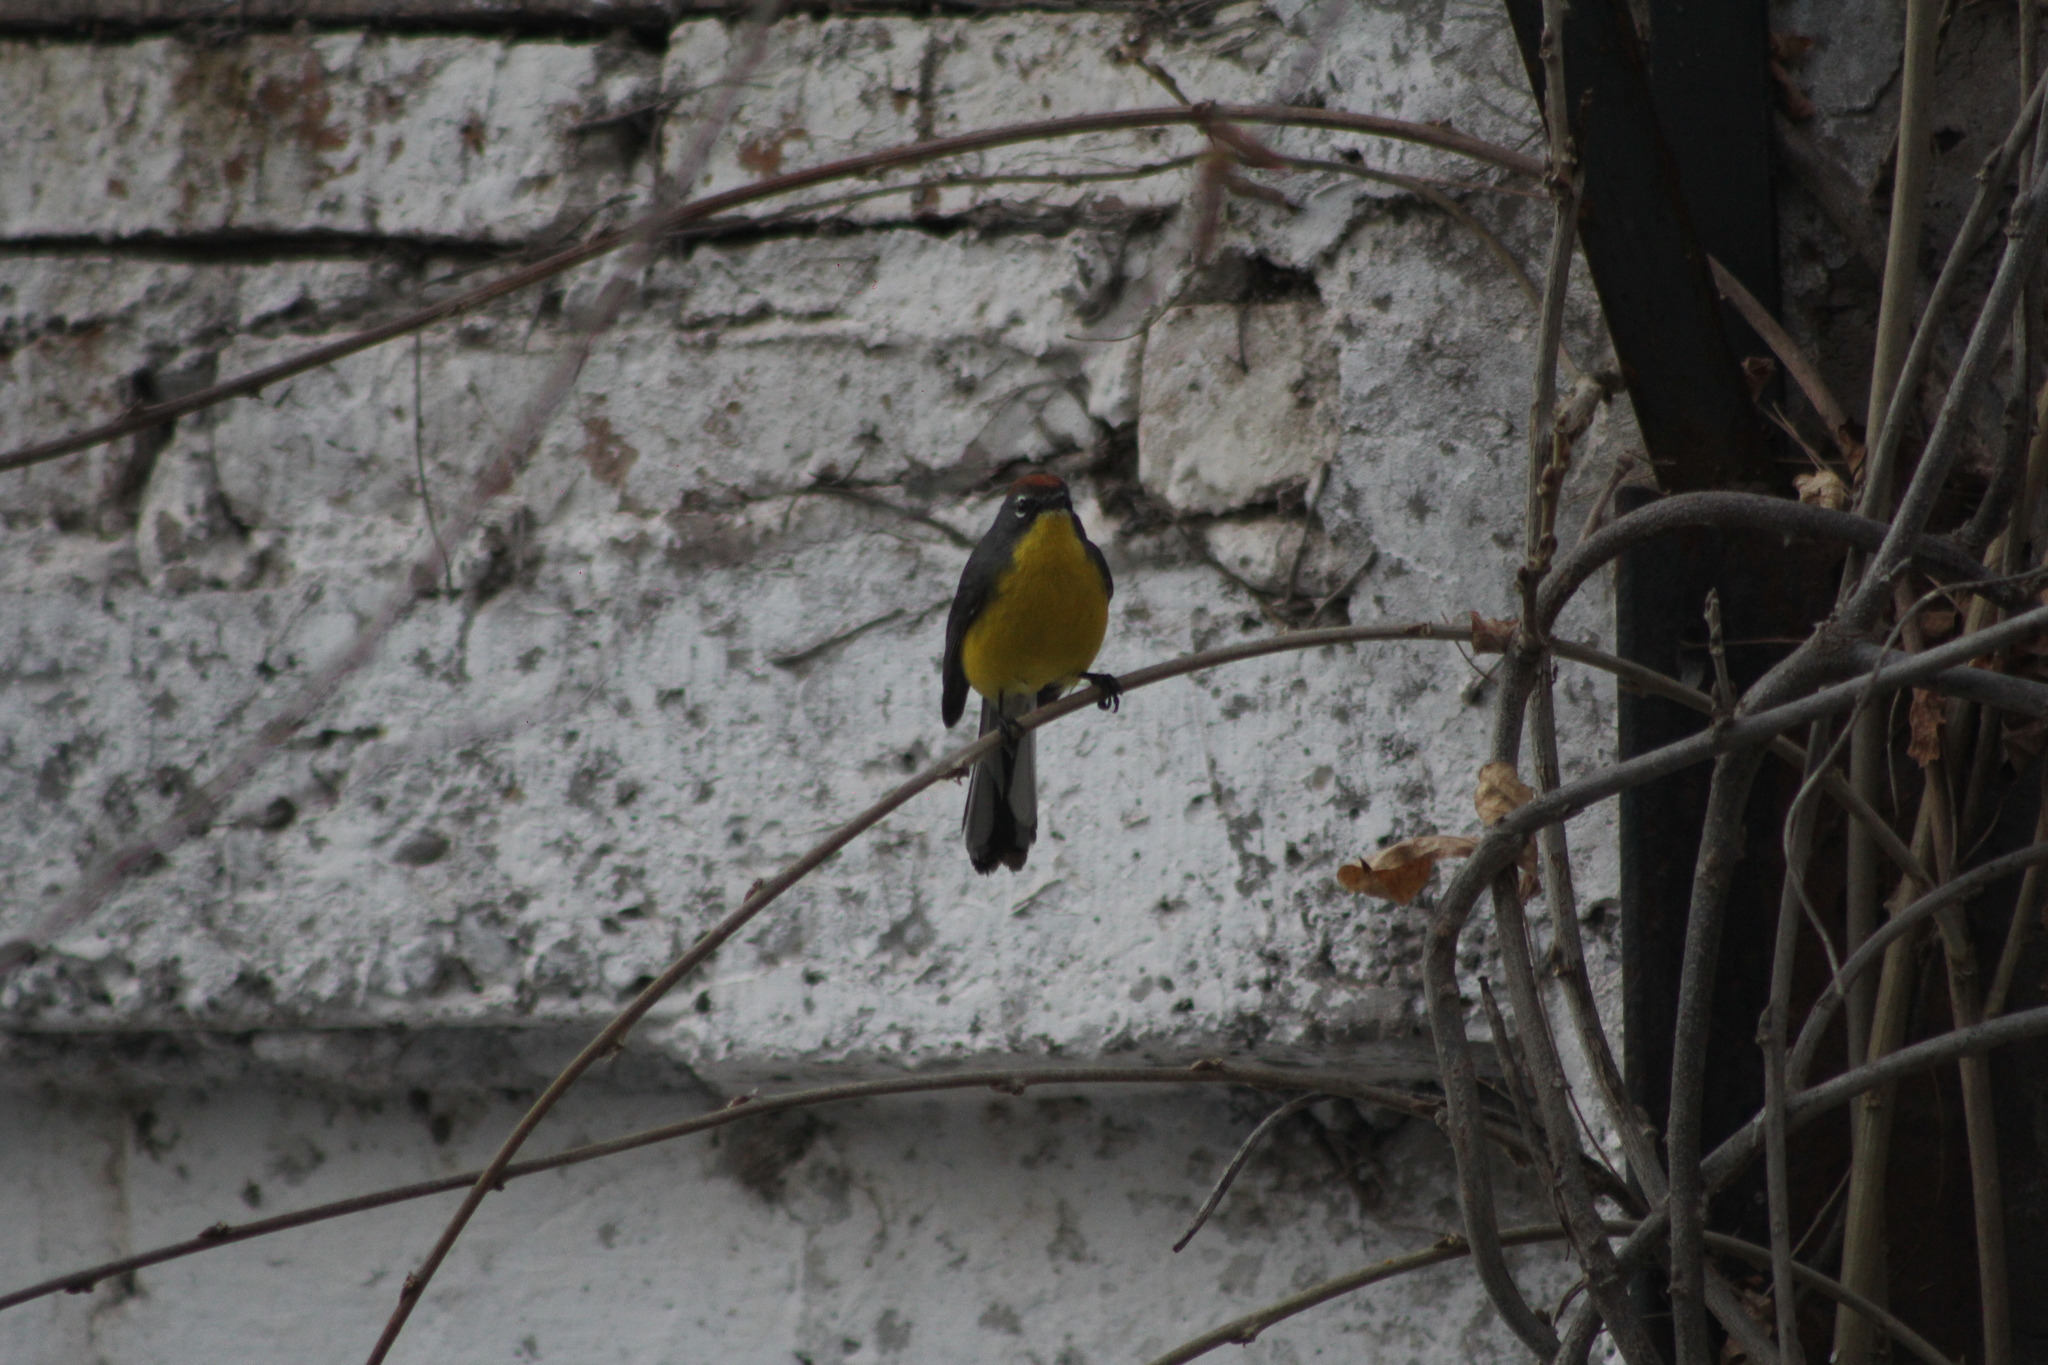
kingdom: Animalia
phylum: Chordata
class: Aves
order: Passeriformes
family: Parulidae
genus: Myioborus
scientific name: Myioborus brunniceps
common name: Brown-capped whitestart
